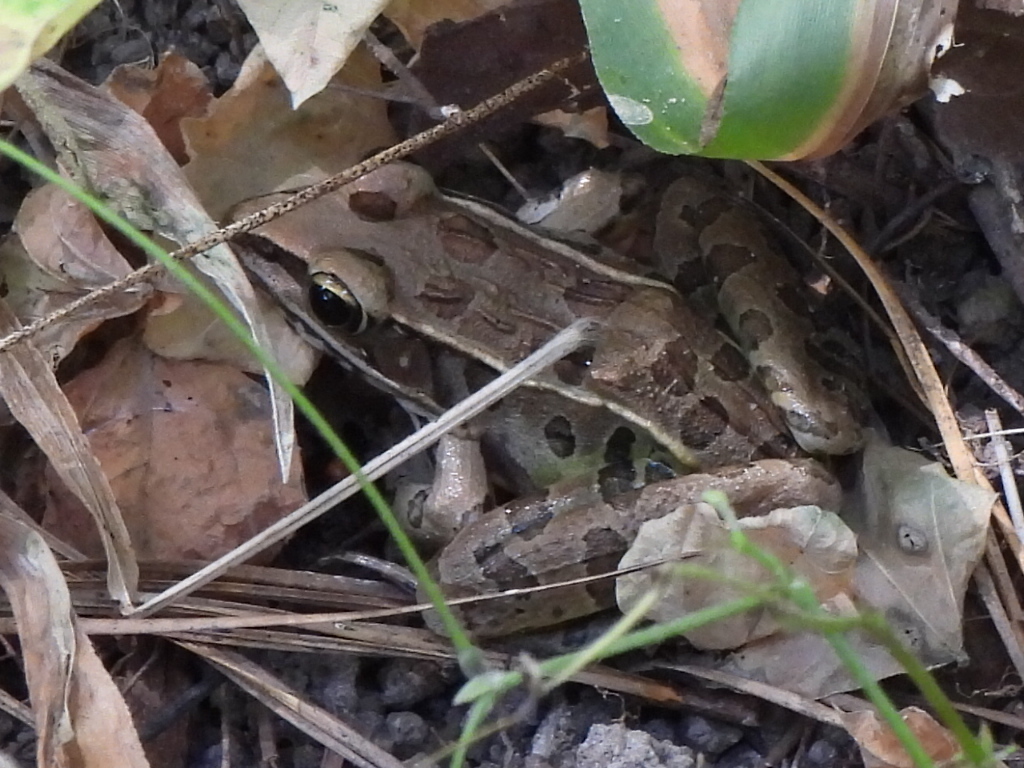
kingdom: Animalia
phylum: Chordata
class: Amphibia
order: Anura
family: Ranidae
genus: Lithobates
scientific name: Lithobates sphenocephalus
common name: Southern leopard frog
